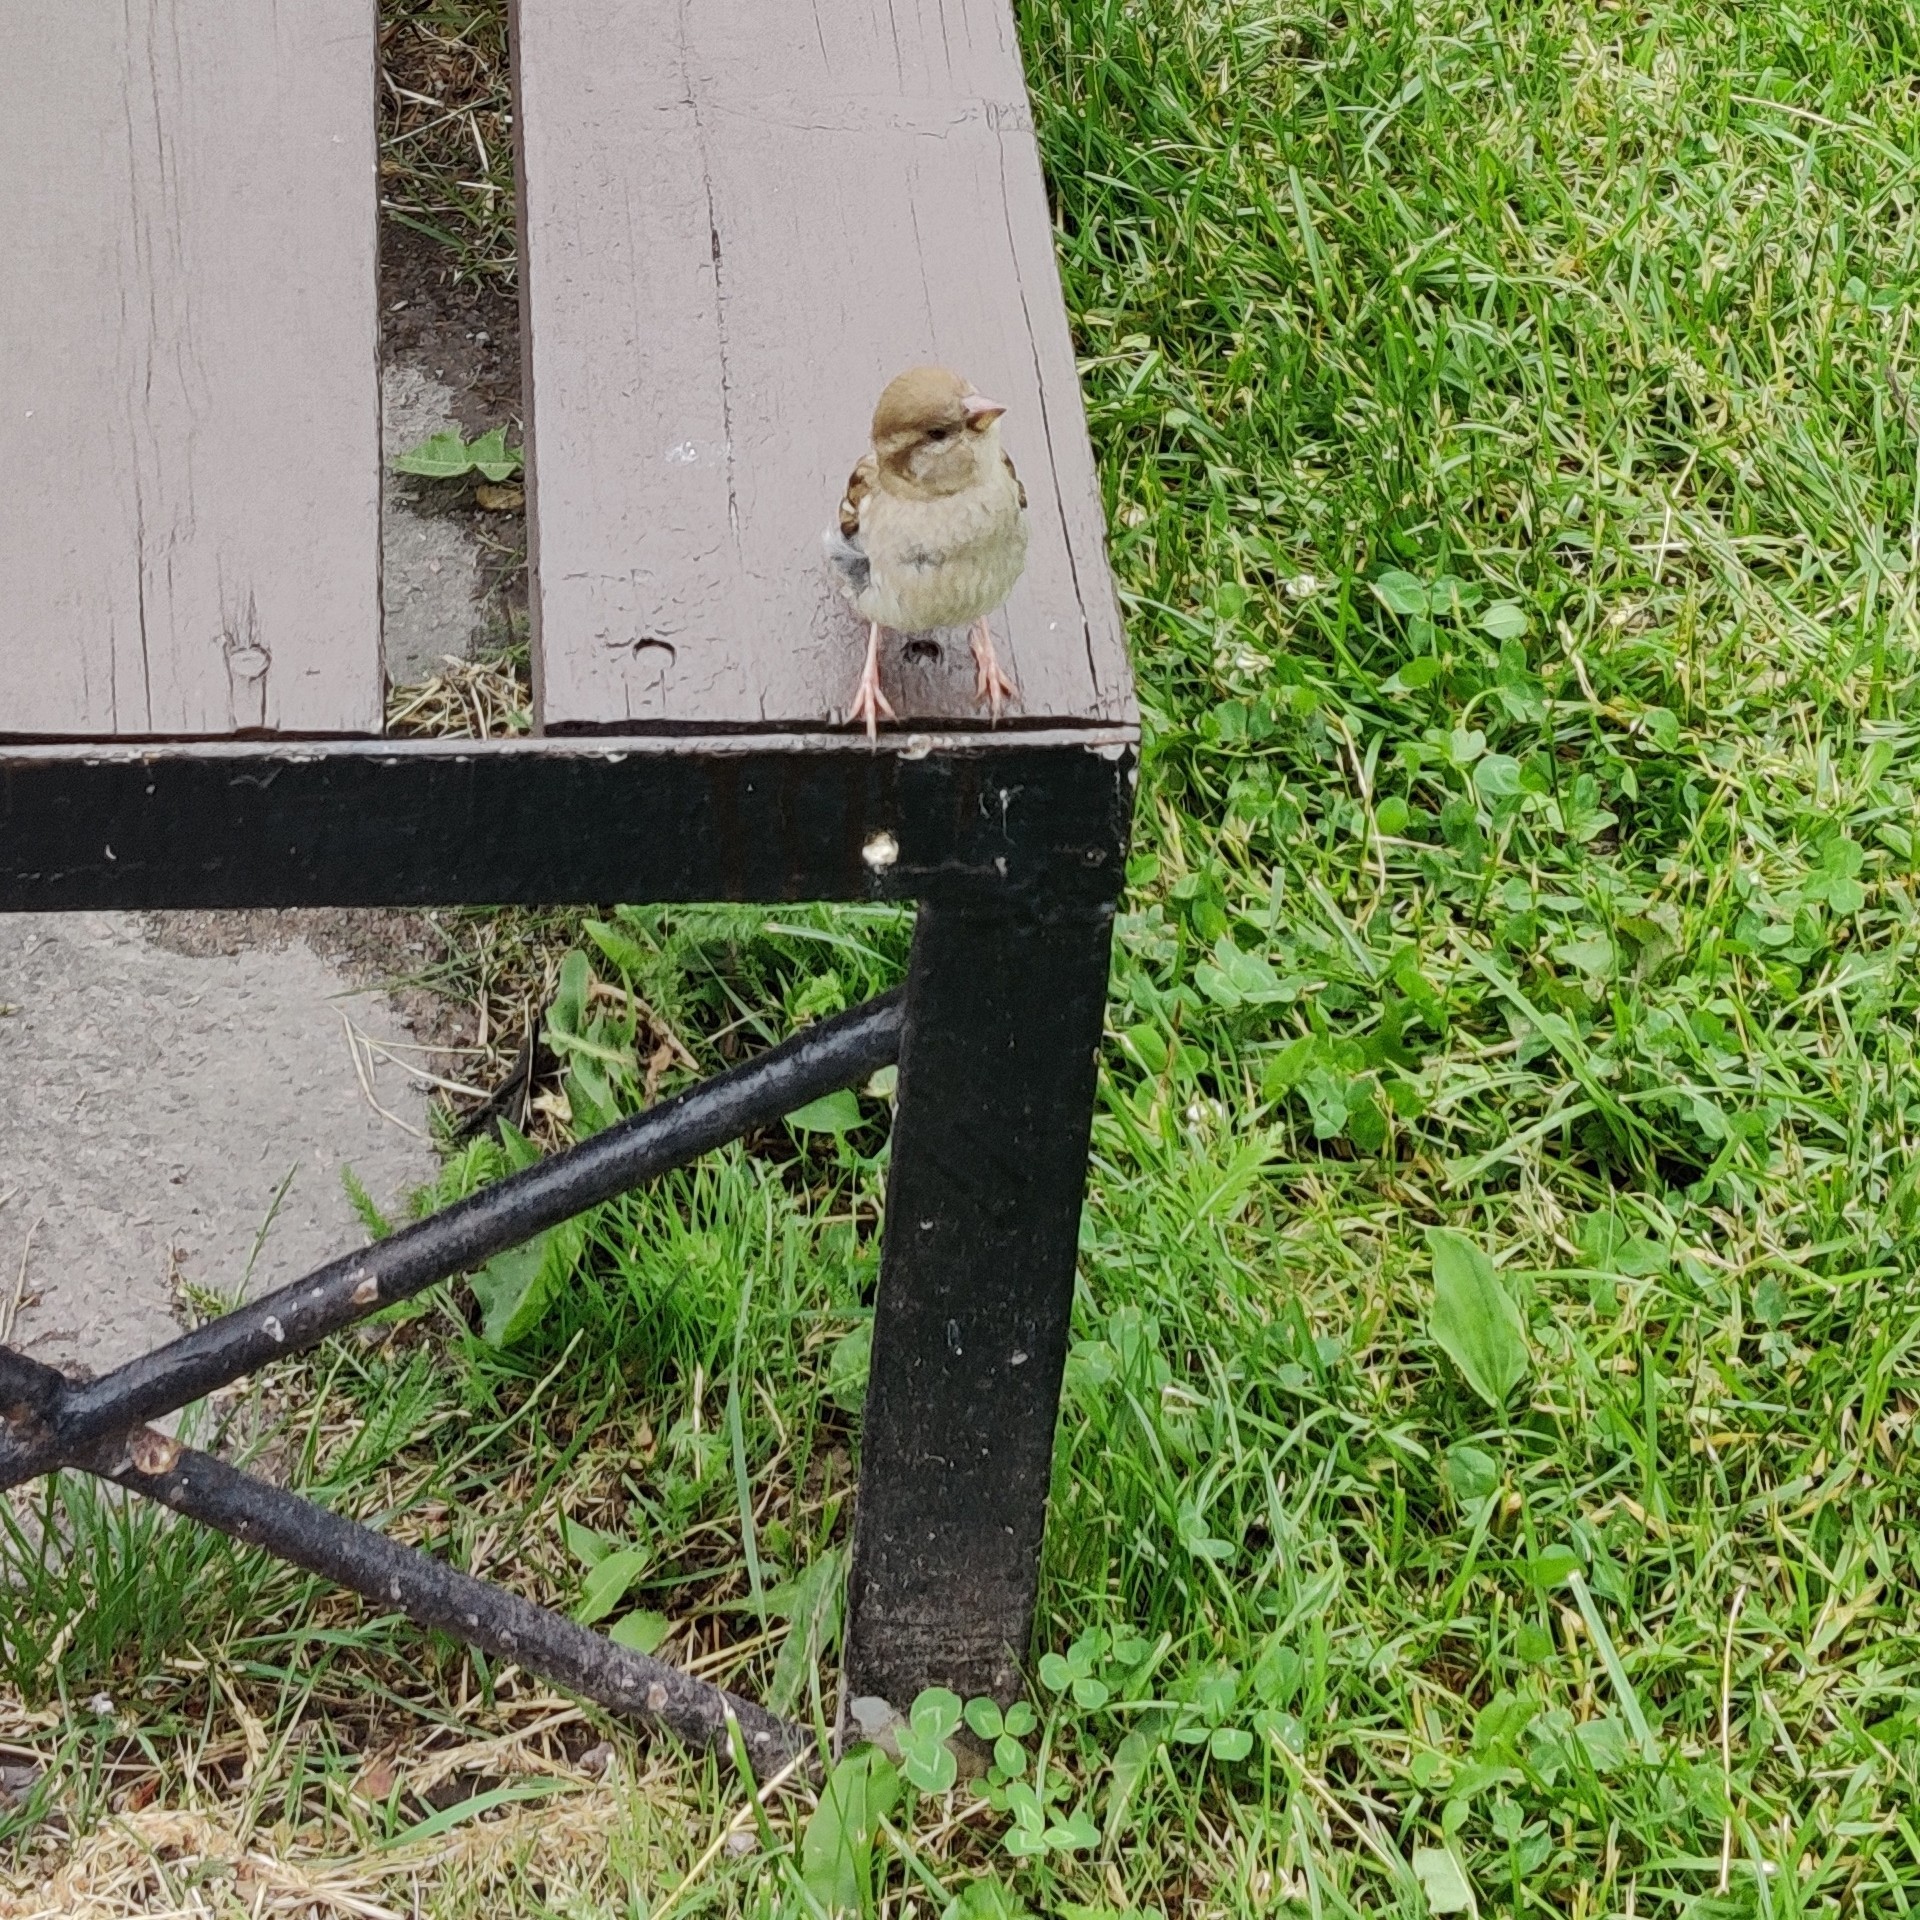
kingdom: Animalia
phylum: Chordata
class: Aves
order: Passeriformes
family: Passeridae
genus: Passer
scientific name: Passer domesticus
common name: House sparrow
